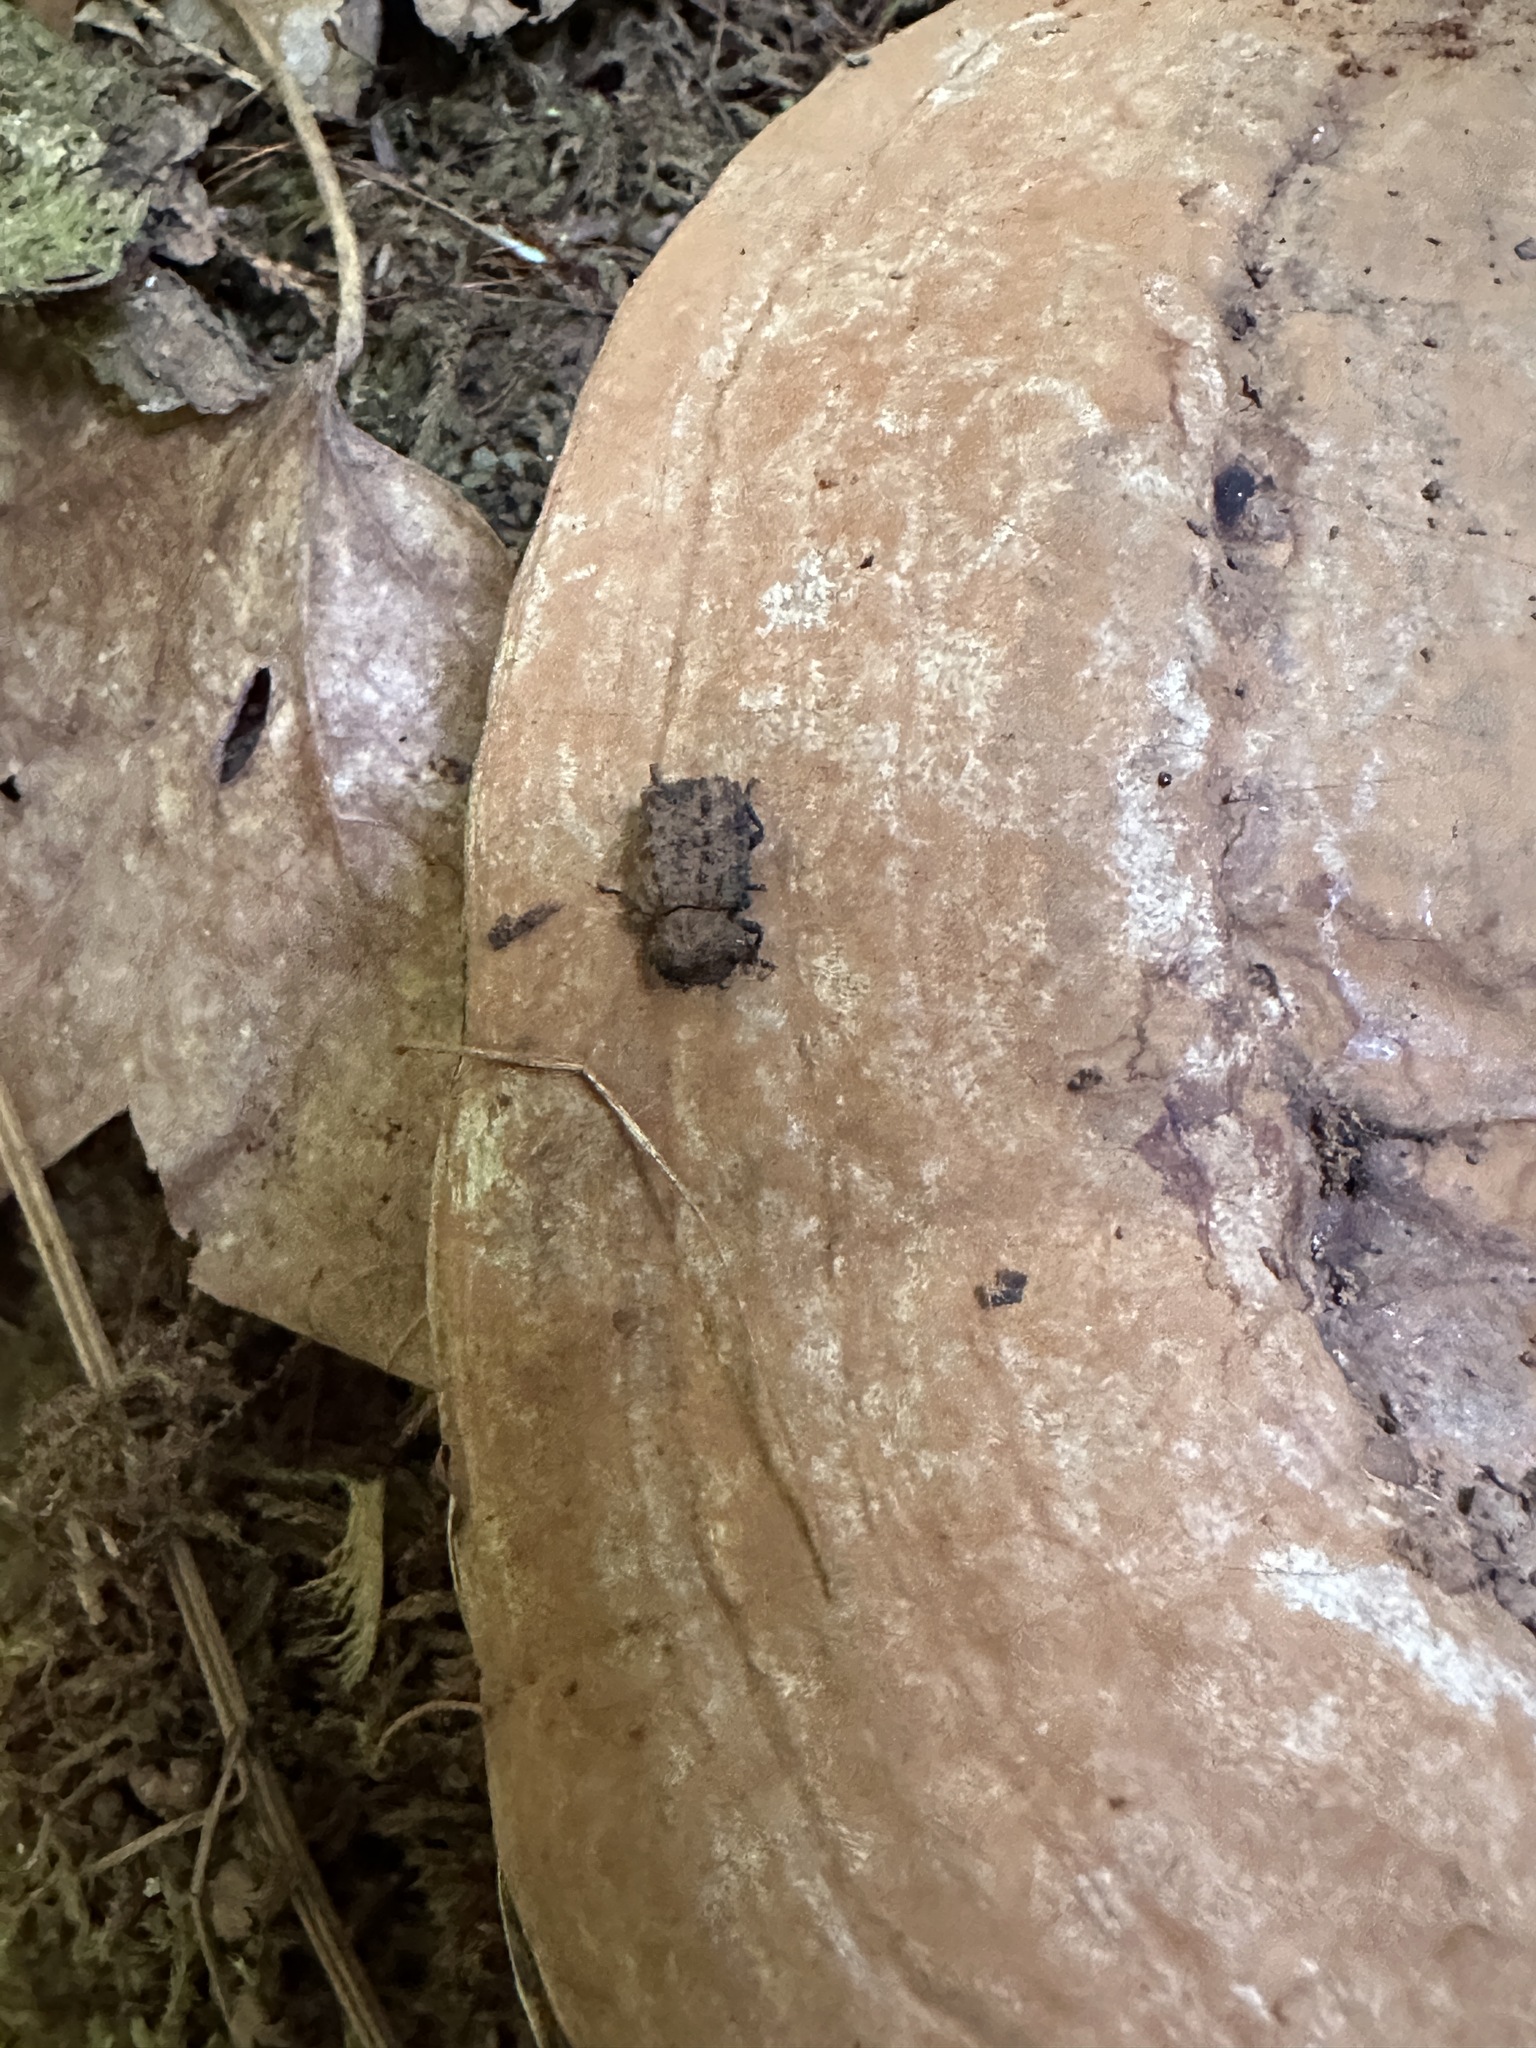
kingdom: Animalia
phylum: Arthropoda
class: Insecta
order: Coleoptera
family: Tenebrionidae
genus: Gnatocerus
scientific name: Gnatocerus cornutus
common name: Broad-horned flour beetle
